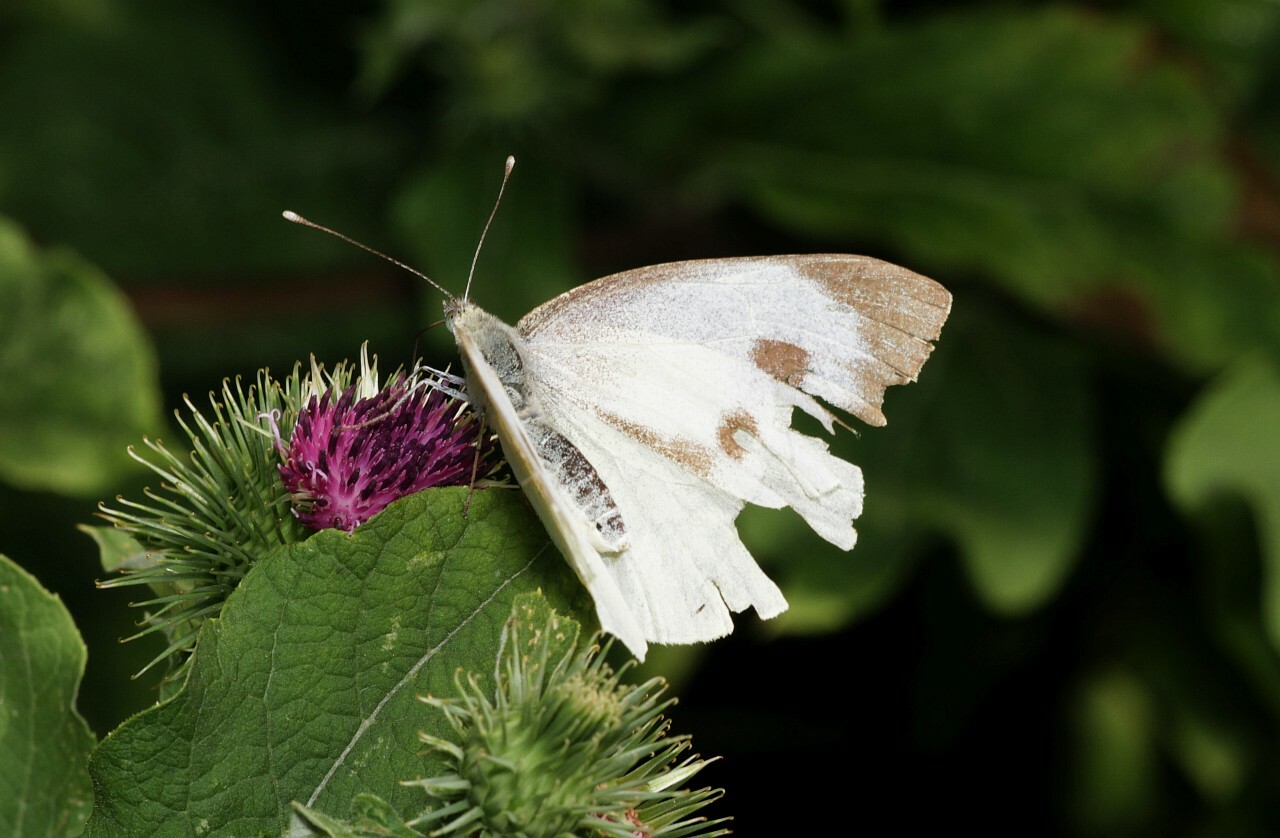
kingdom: Animalia
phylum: Arthropoda
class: Insecta
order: Lepidoptera
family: Pieridae
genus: Pieris
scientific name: Pieris brassicae
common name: Large white
